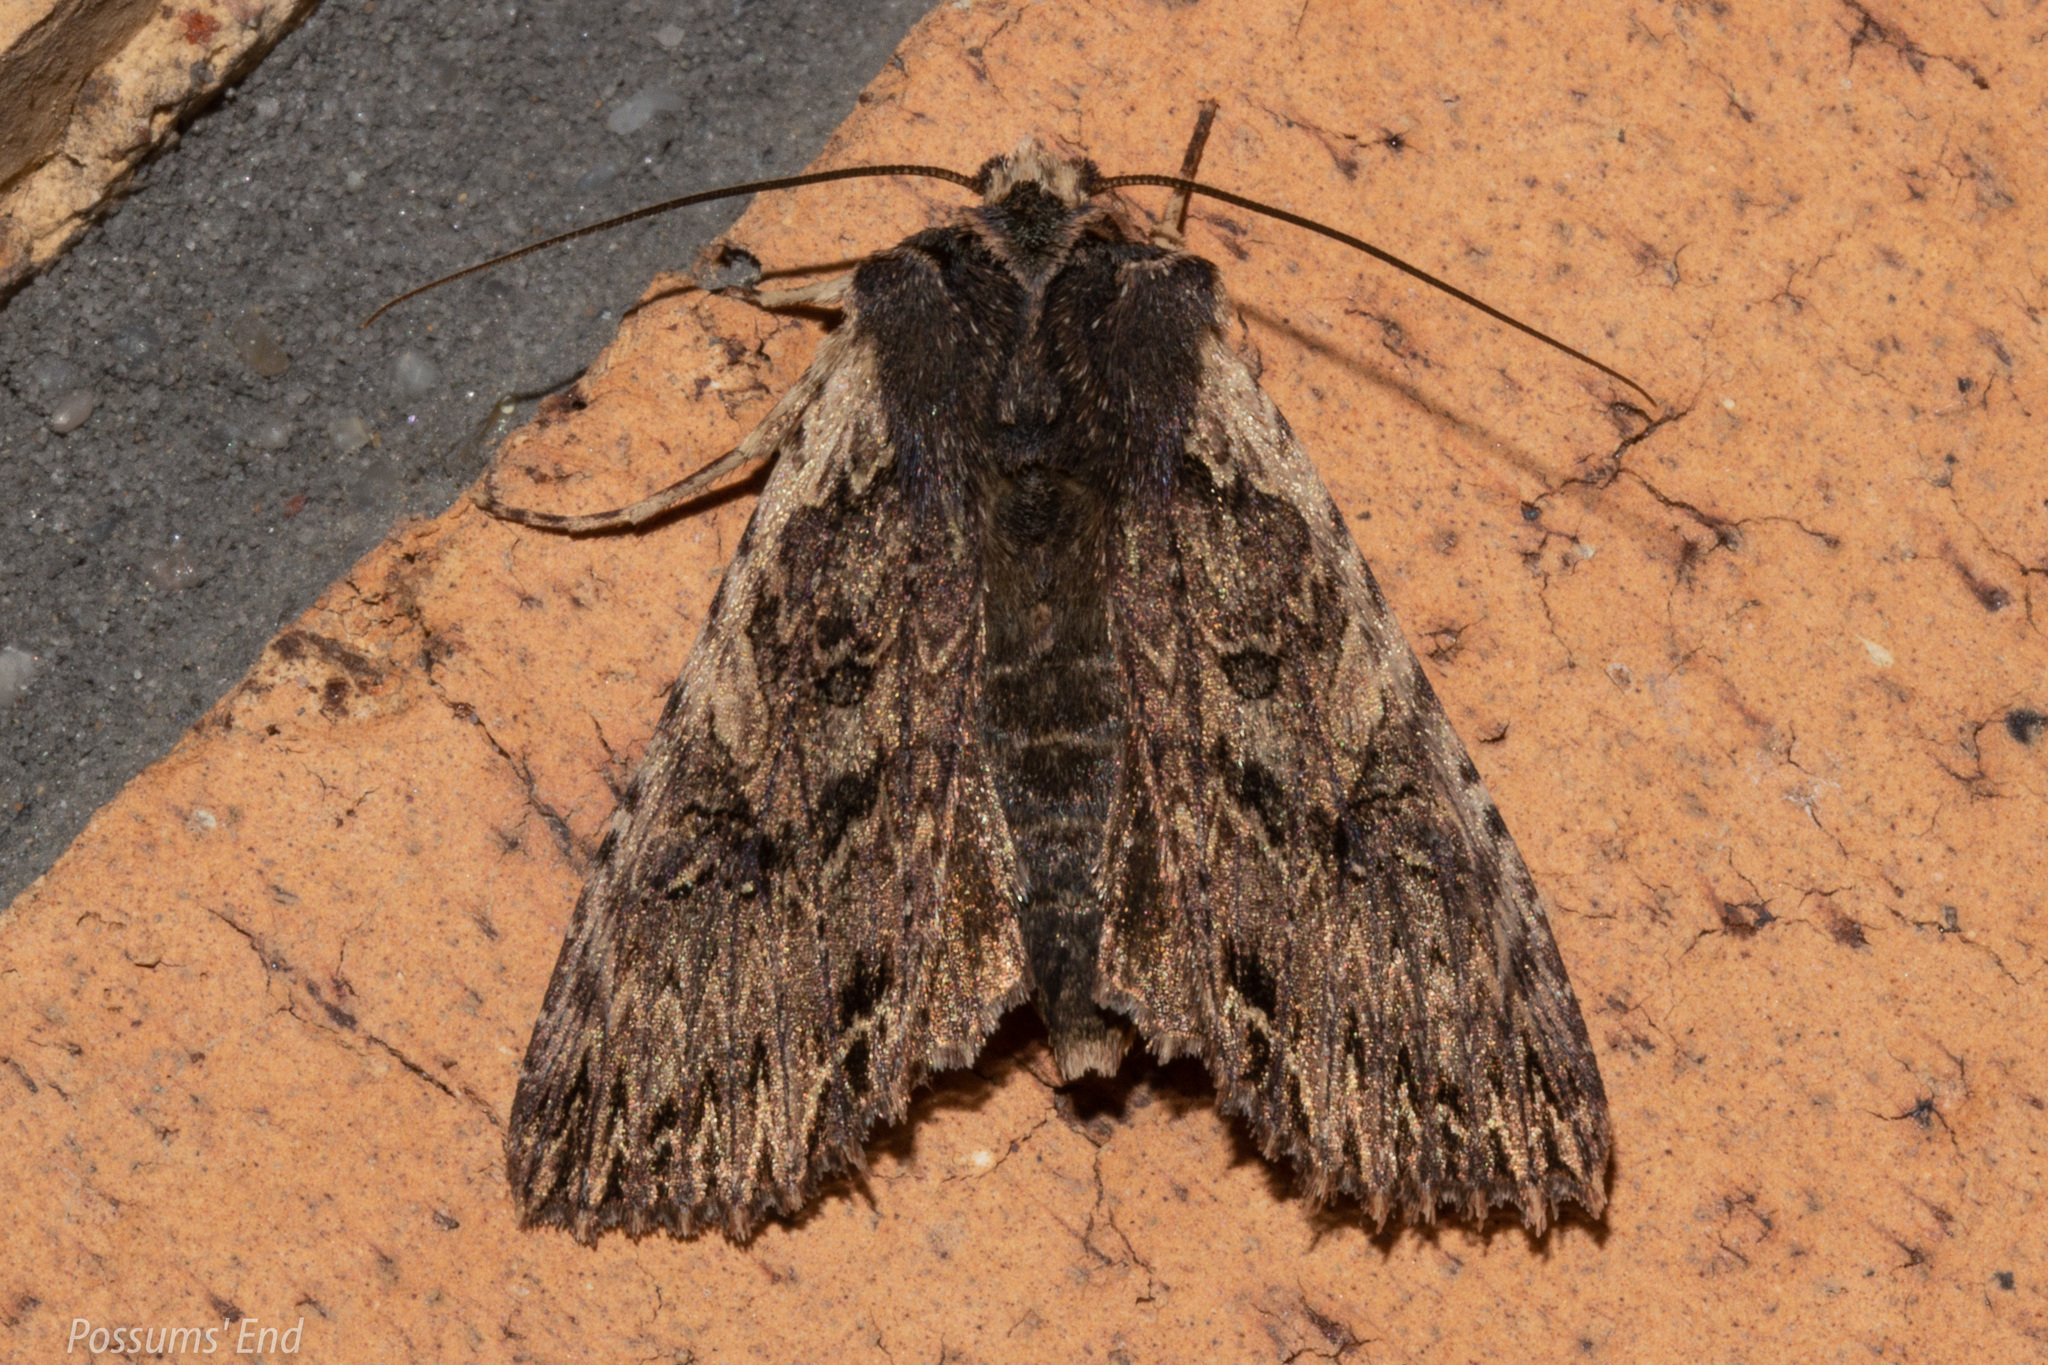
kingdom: Animalia
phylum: Arthropoda
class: Insecta
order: Lepidoptera
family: Noctuidae
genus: Meterana
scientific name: Meterana alcyone
